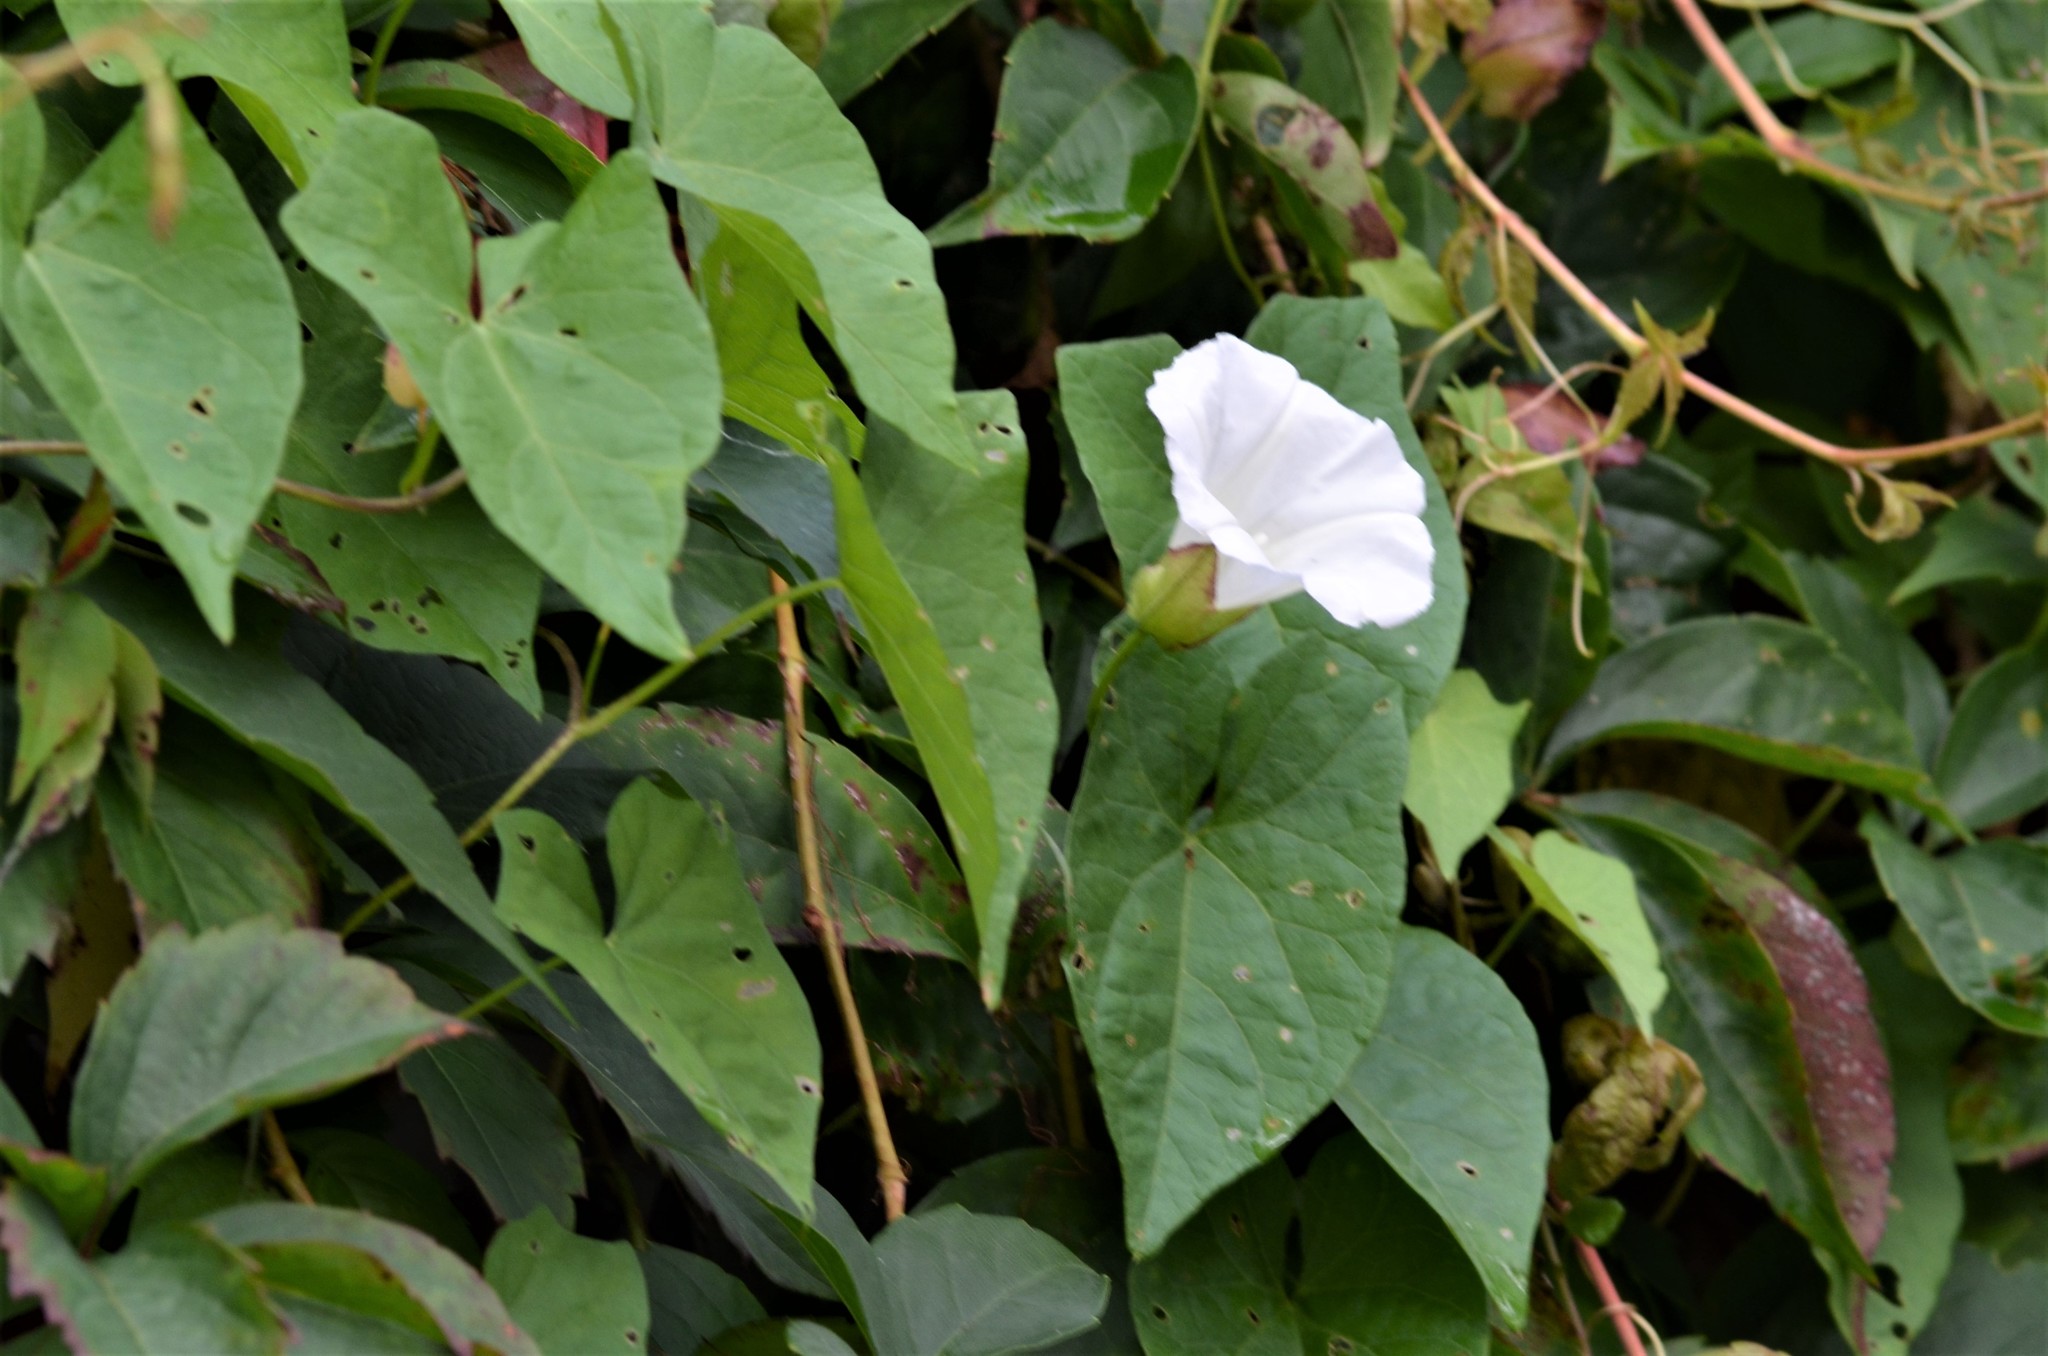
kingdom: Plantae
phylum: Tracheophyta
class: Magnoliopsida
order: Solanales
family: Convolvulaceae
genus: Calystegia
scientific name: Calystegia sepium
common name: Hedge bindweed
